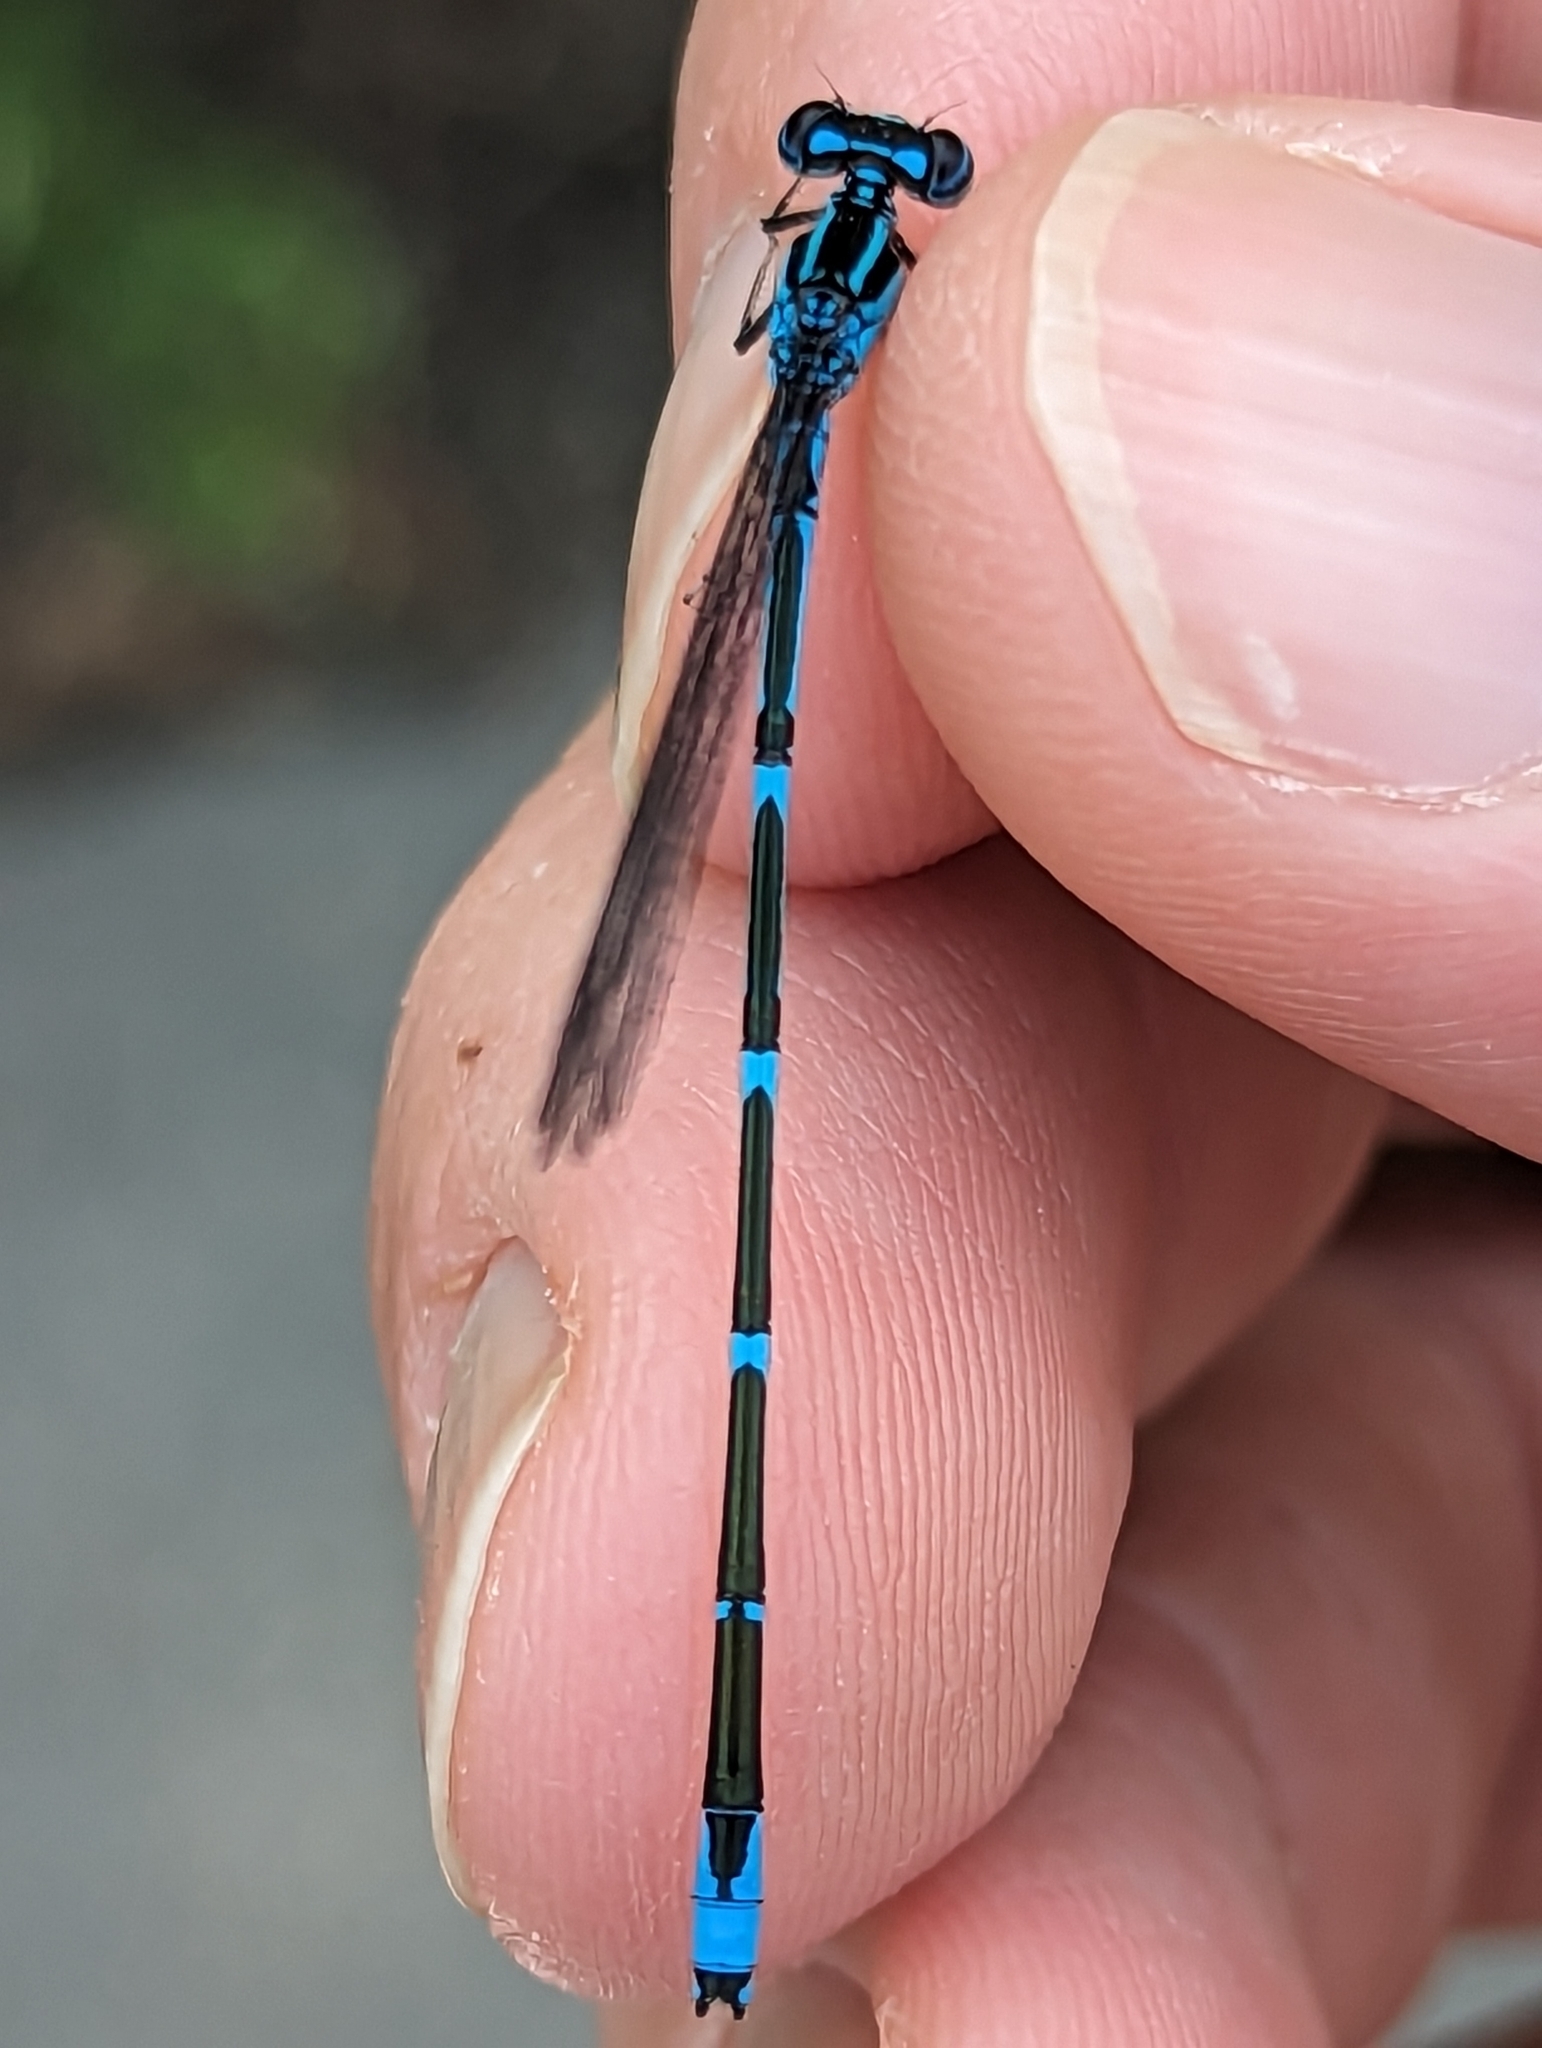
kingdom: Animalia
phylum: Arthropoda
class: Insecta
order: Odonata
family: Coenagrionidae
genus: Enallagma
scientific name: Enallagma exsulans
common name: Stream bluet
